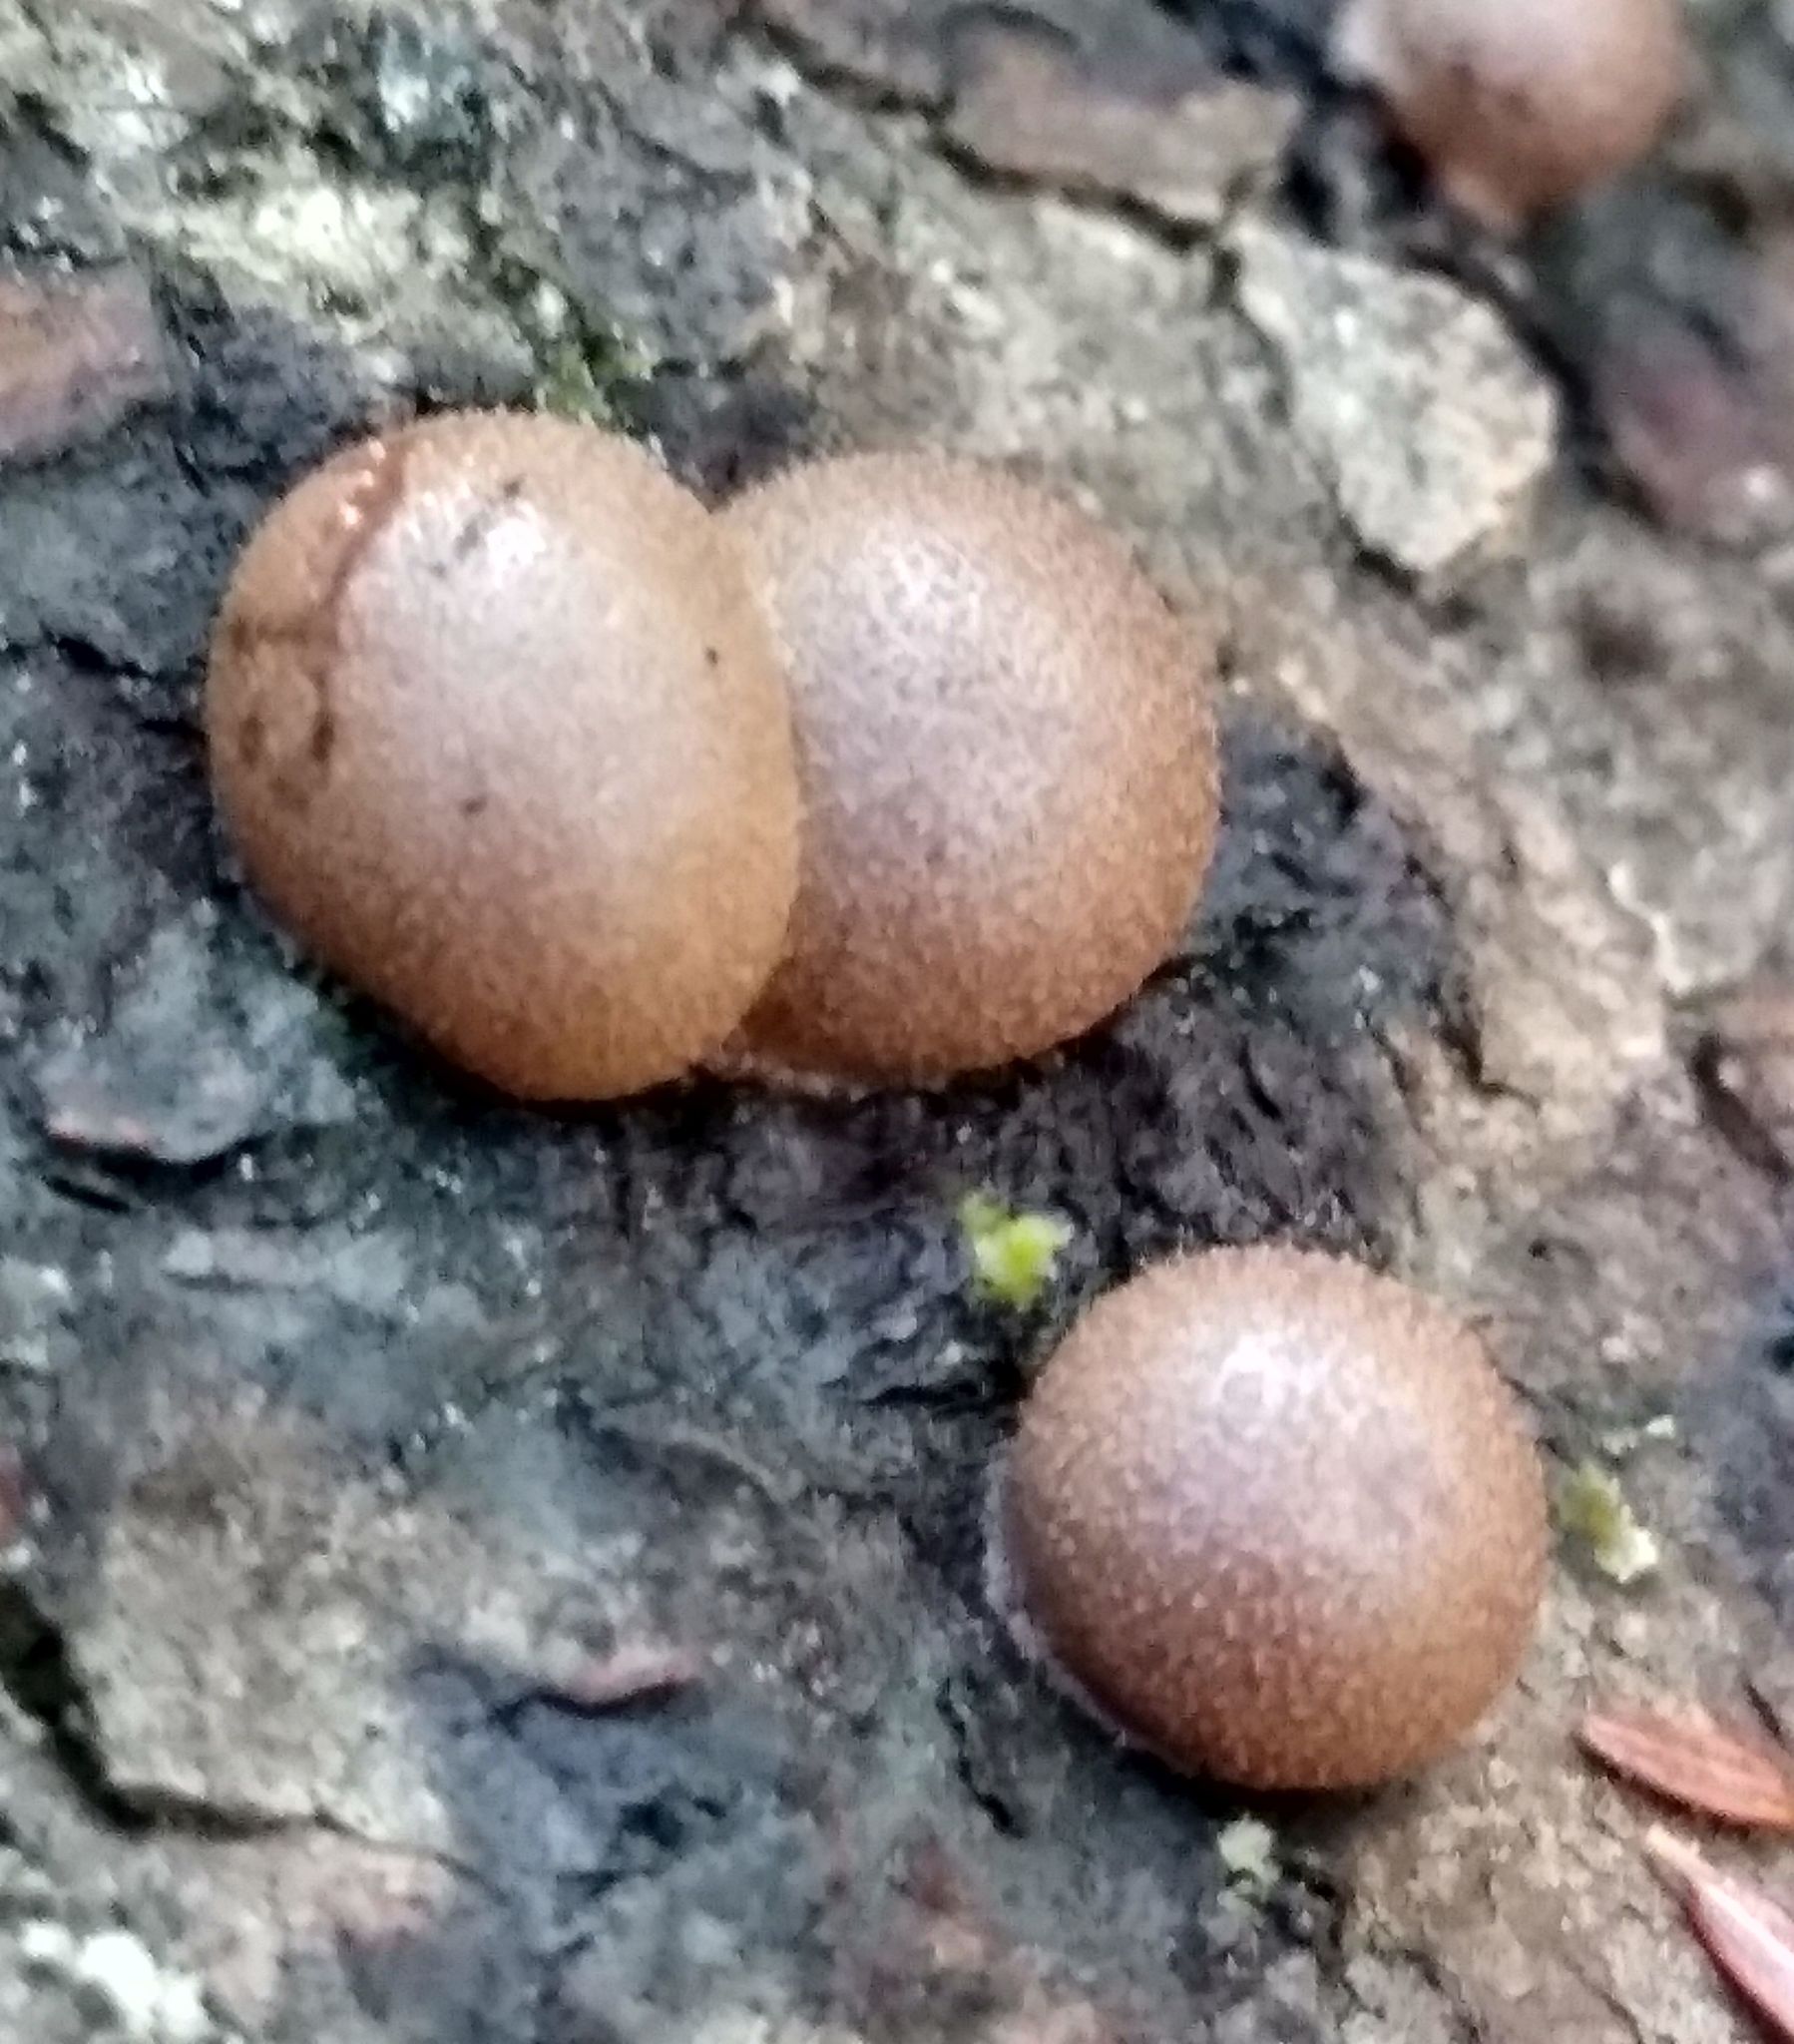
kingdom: Protozoa
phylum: Mycetozoa
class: Myxomycetes
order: Cribrariales
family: Tubiferaceae
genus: Lycogala
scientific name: Lycogala epidendrum
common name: Wolf's milk
